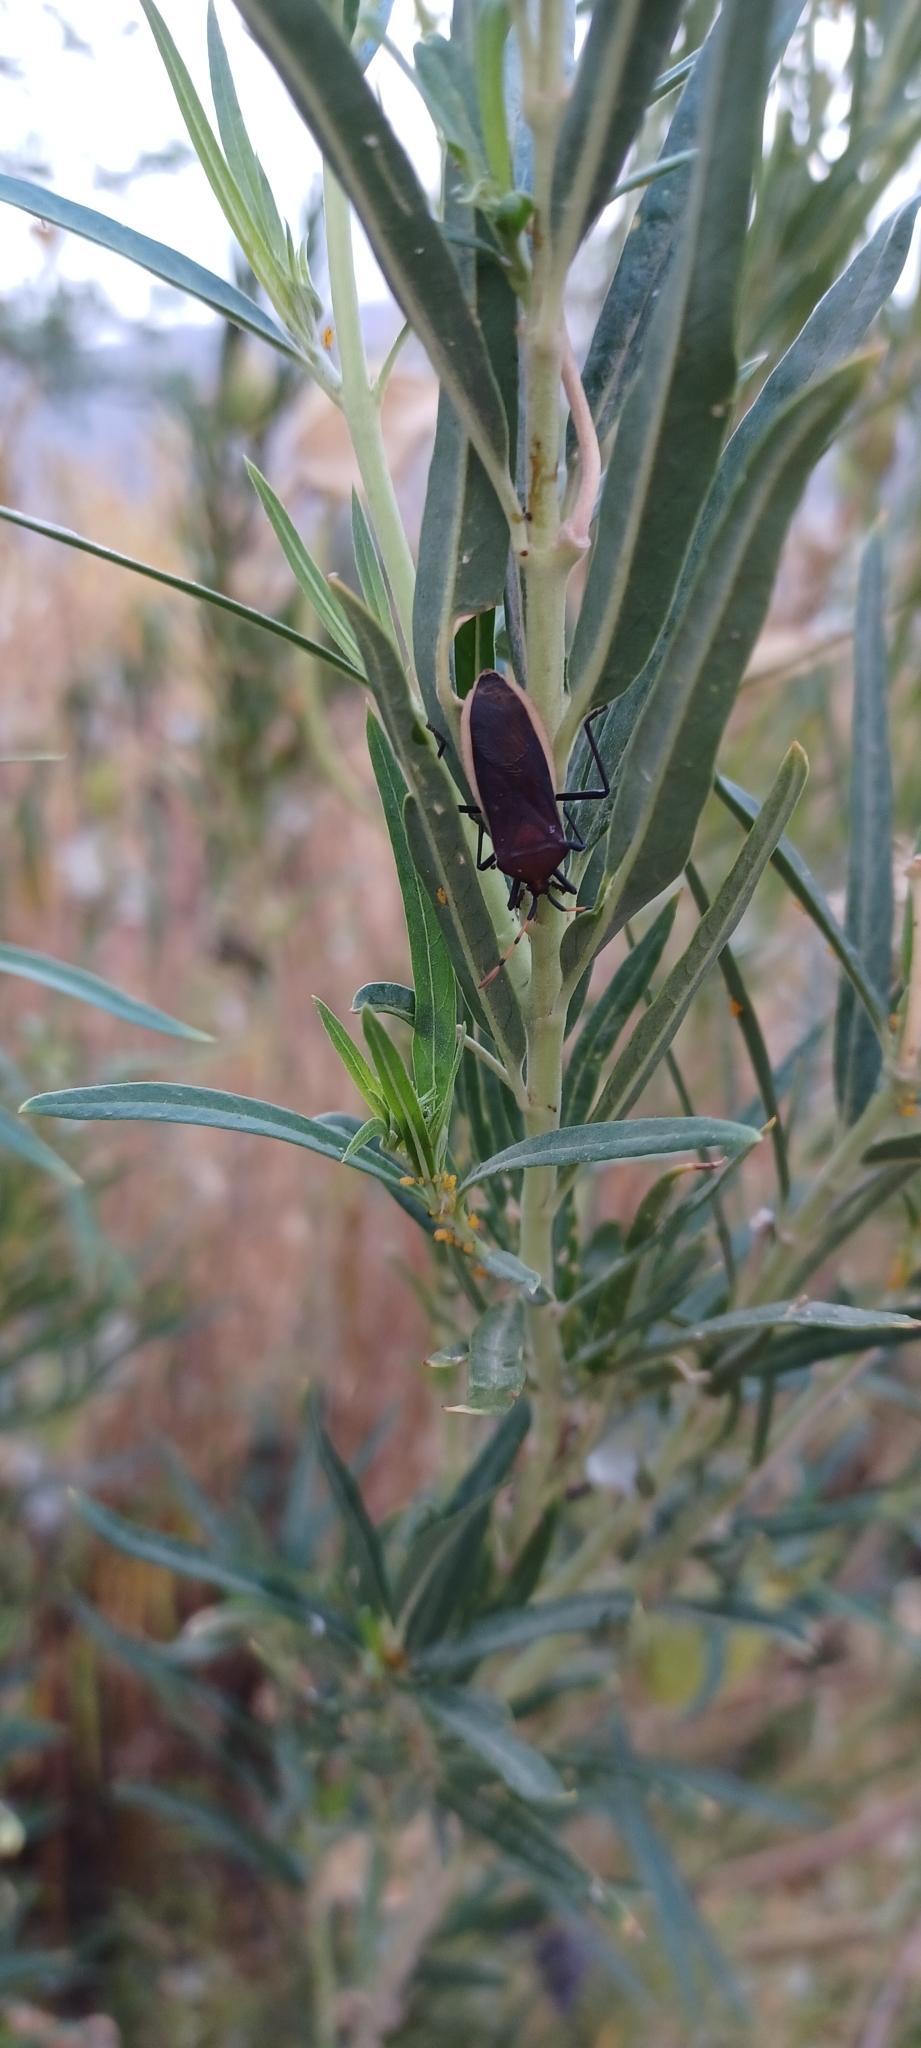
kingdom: Animalia
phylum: Arthropoda
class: Insecta
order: Hemiptera
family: Coreidae
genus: Homoeocerus
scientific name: Homoeocerus annulatus
